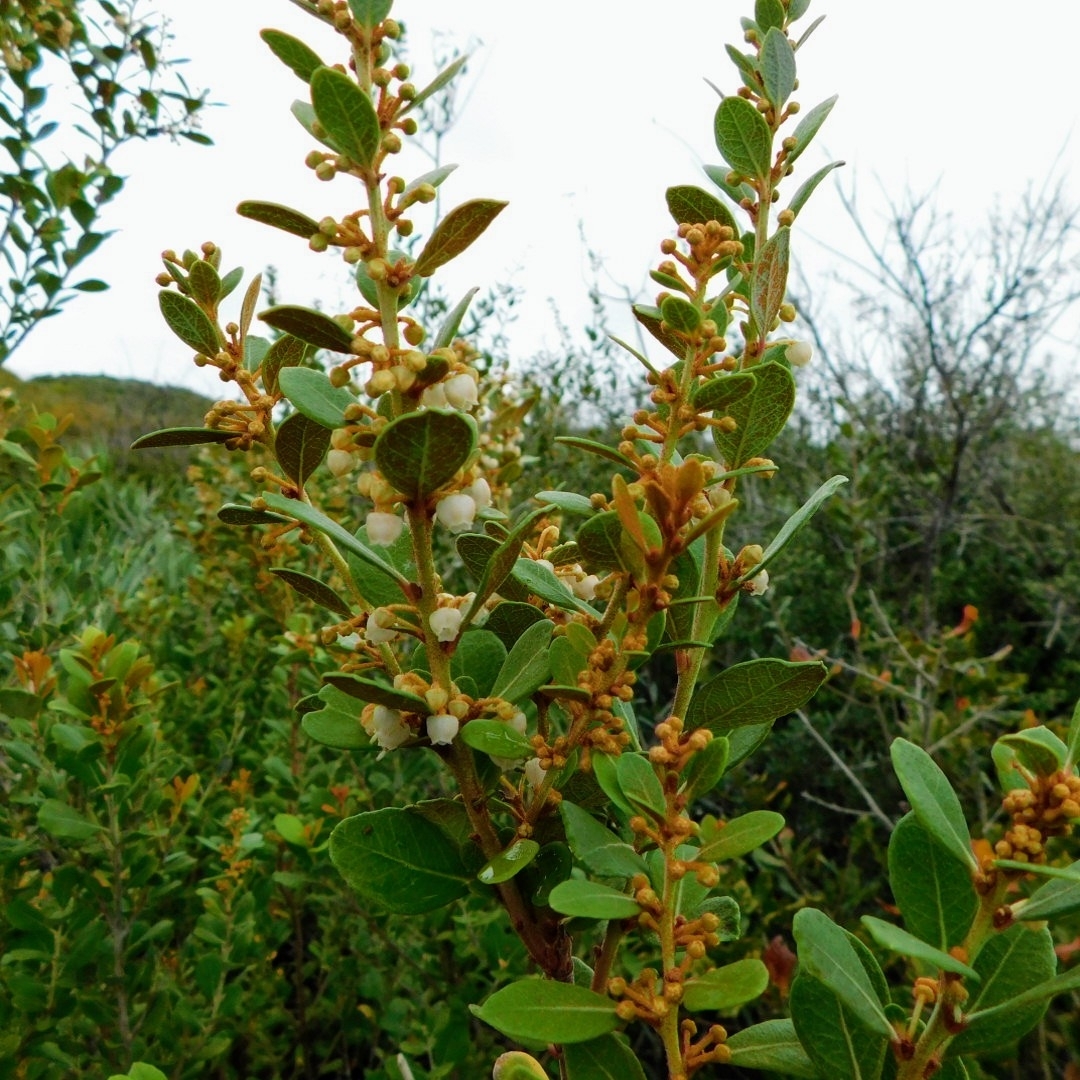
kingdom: Plantae
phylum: Tracheophyta
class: Magnoliopsida
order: Ericales
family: Ericaceae
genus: Lyonia
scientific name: Lyonia fruticosa
